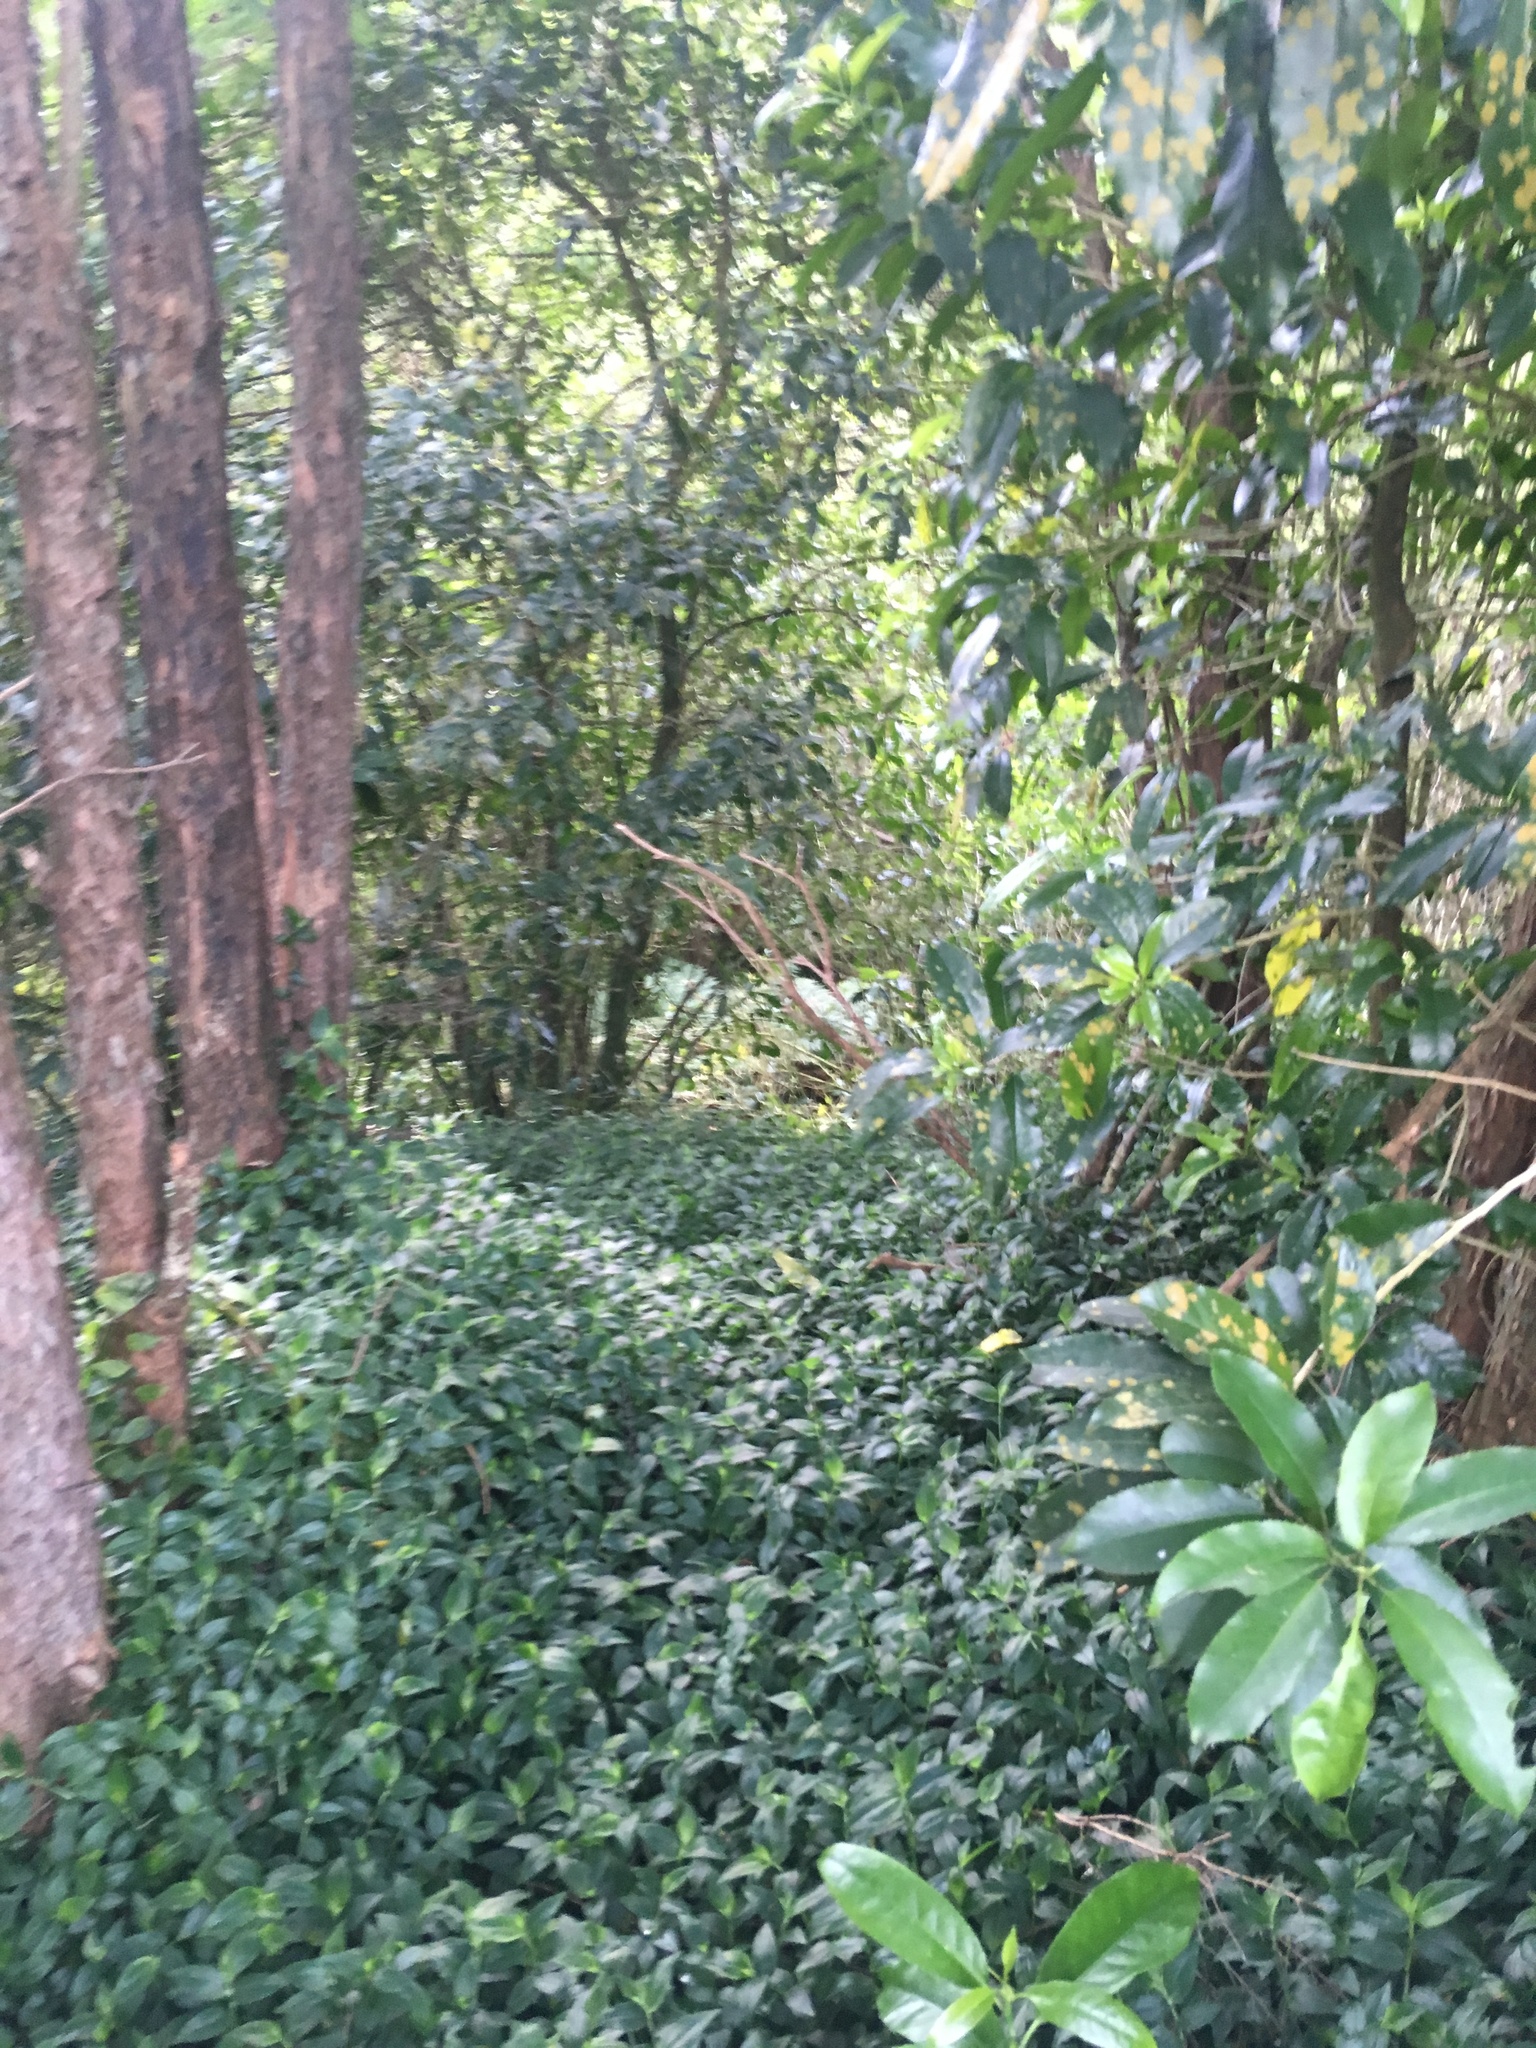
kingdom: Plantae
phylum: Tracheophyta
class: Liliopsida
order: Commelinales
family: Commelinaceae
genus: Tradescantia
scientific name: Tradescantia fluminensis
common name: Wandering-jew
